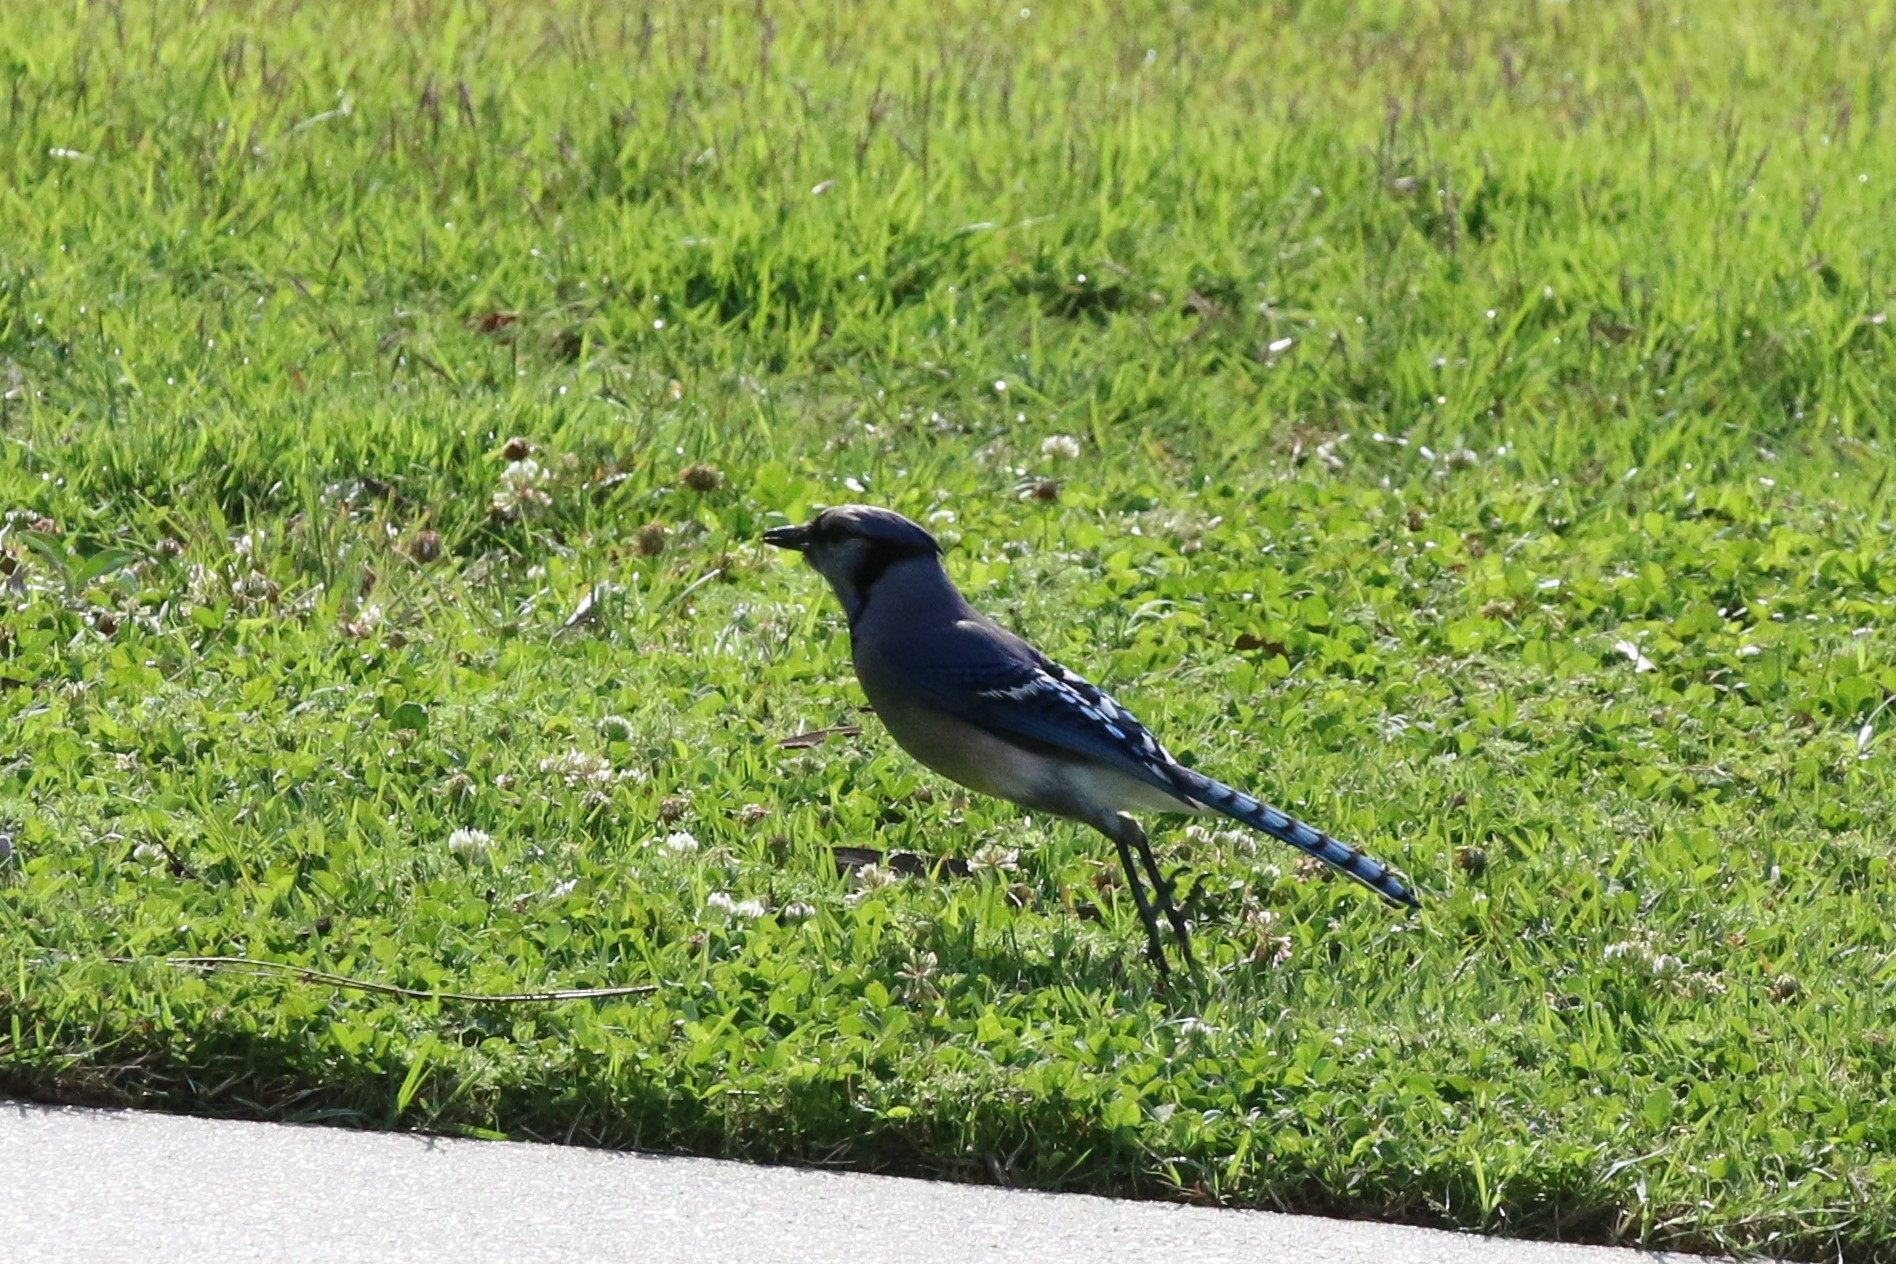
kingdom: Animalia
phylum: Chordata
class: Aves
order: Passeriformes
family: Corvidae
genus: Cyanocitta
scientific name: Cyanocitta cristata
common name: Blue jay
